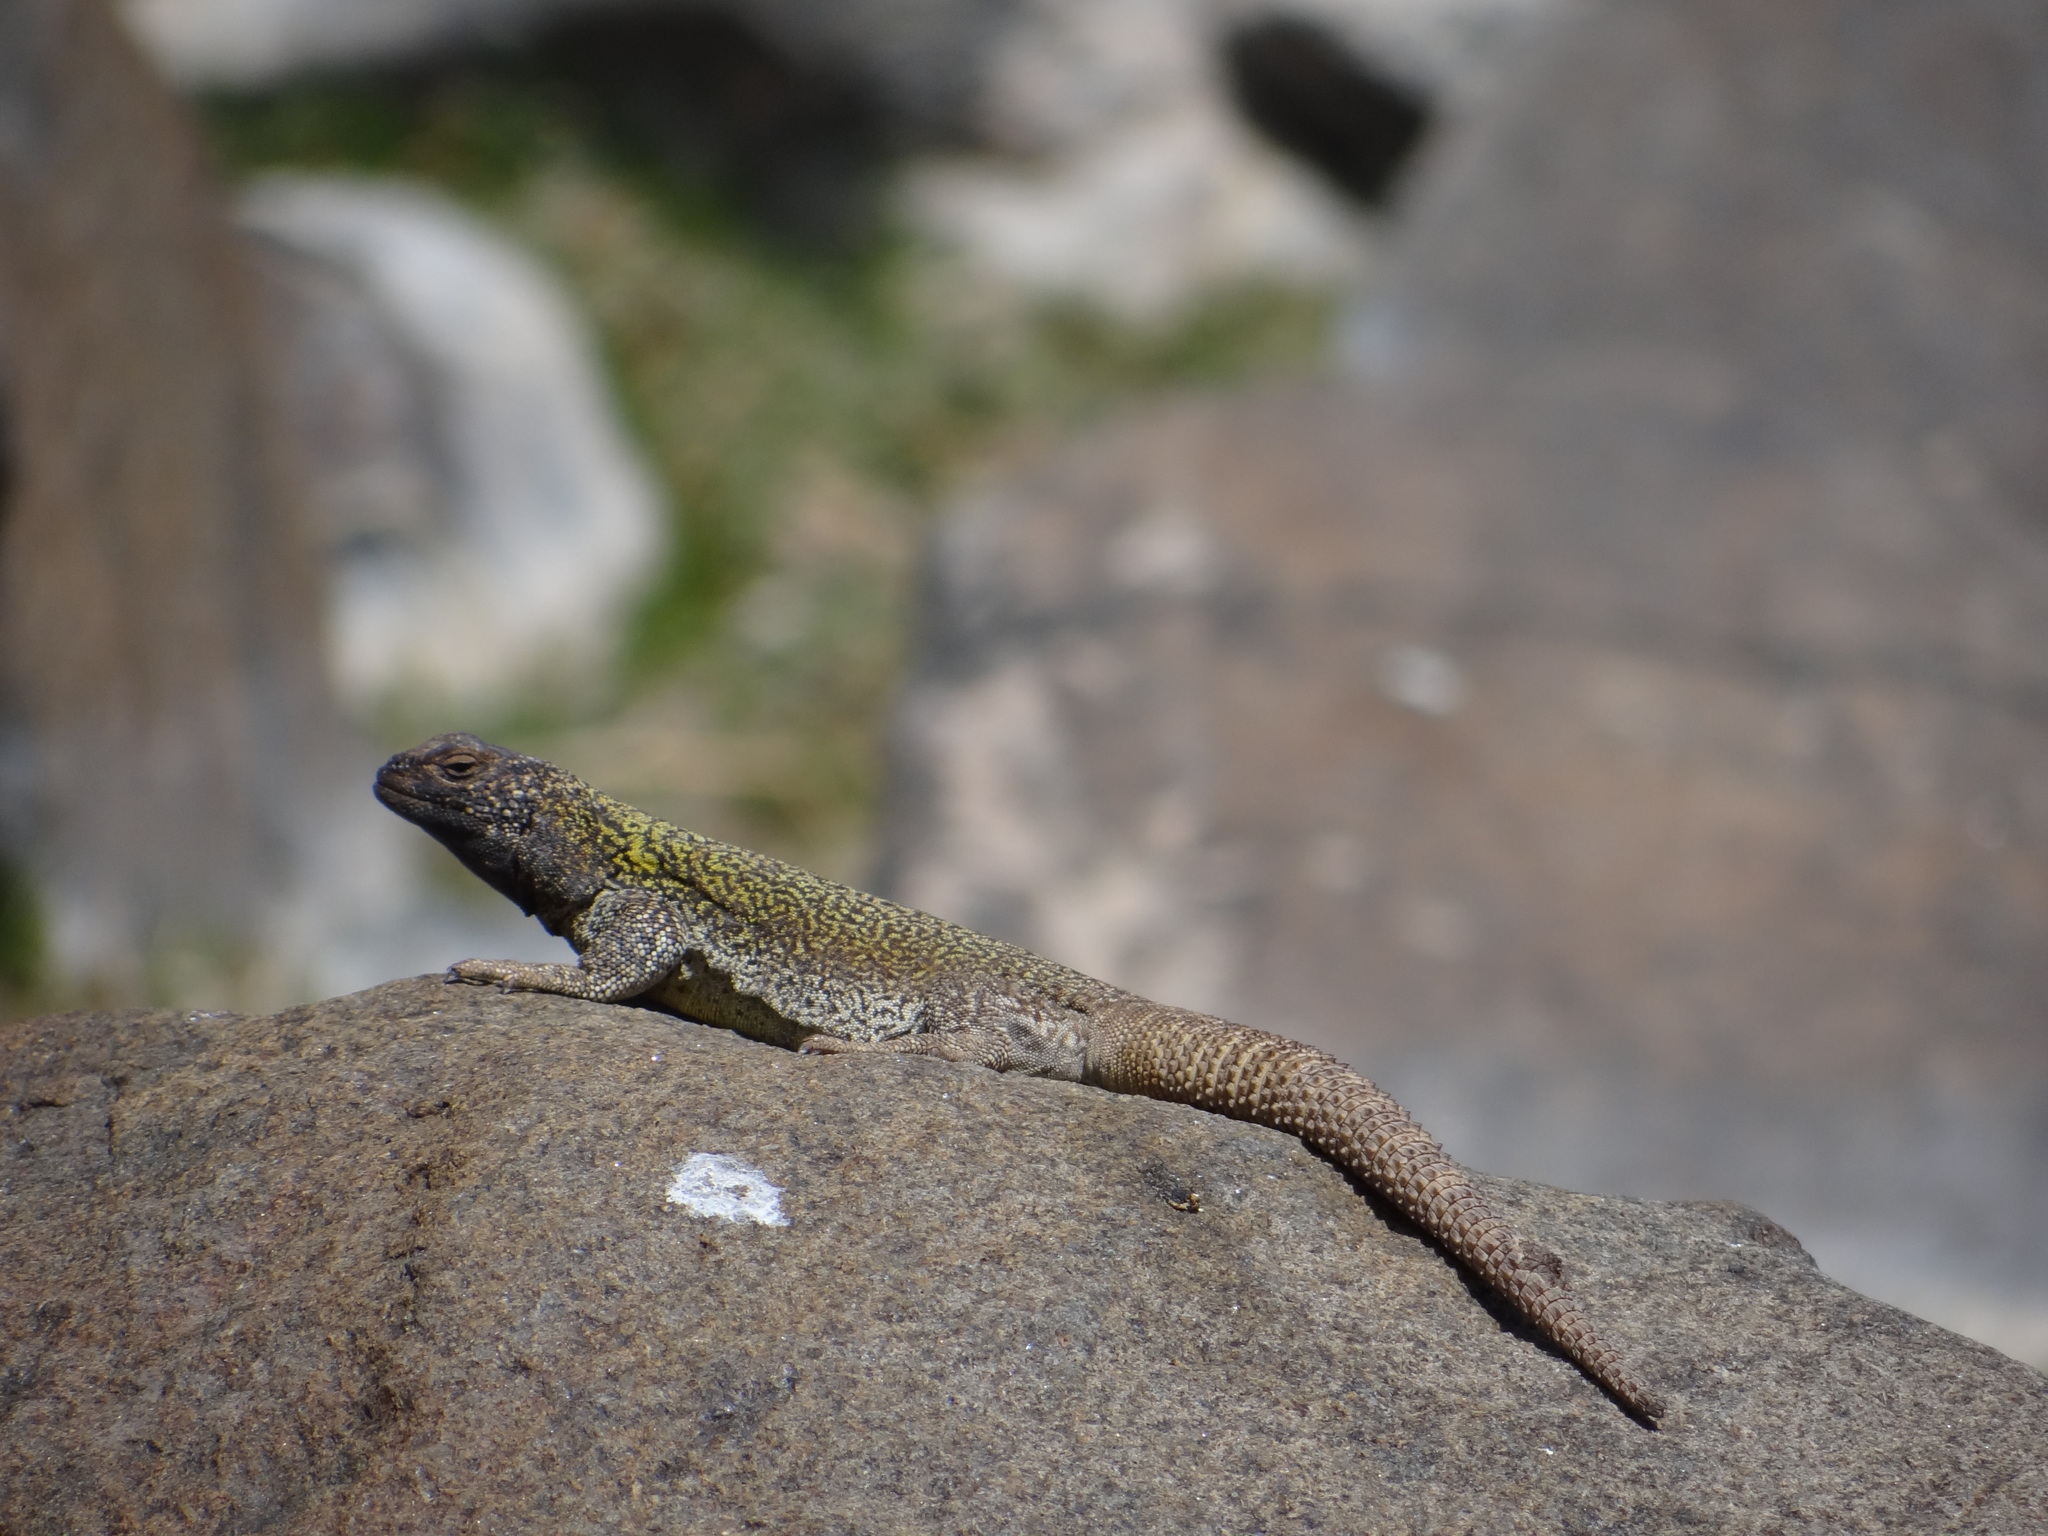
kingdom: Animalia
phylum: Chordata
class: Squamata
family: Liolaemidae
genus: Phymaturus
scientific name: Phymaturus extrilidus
